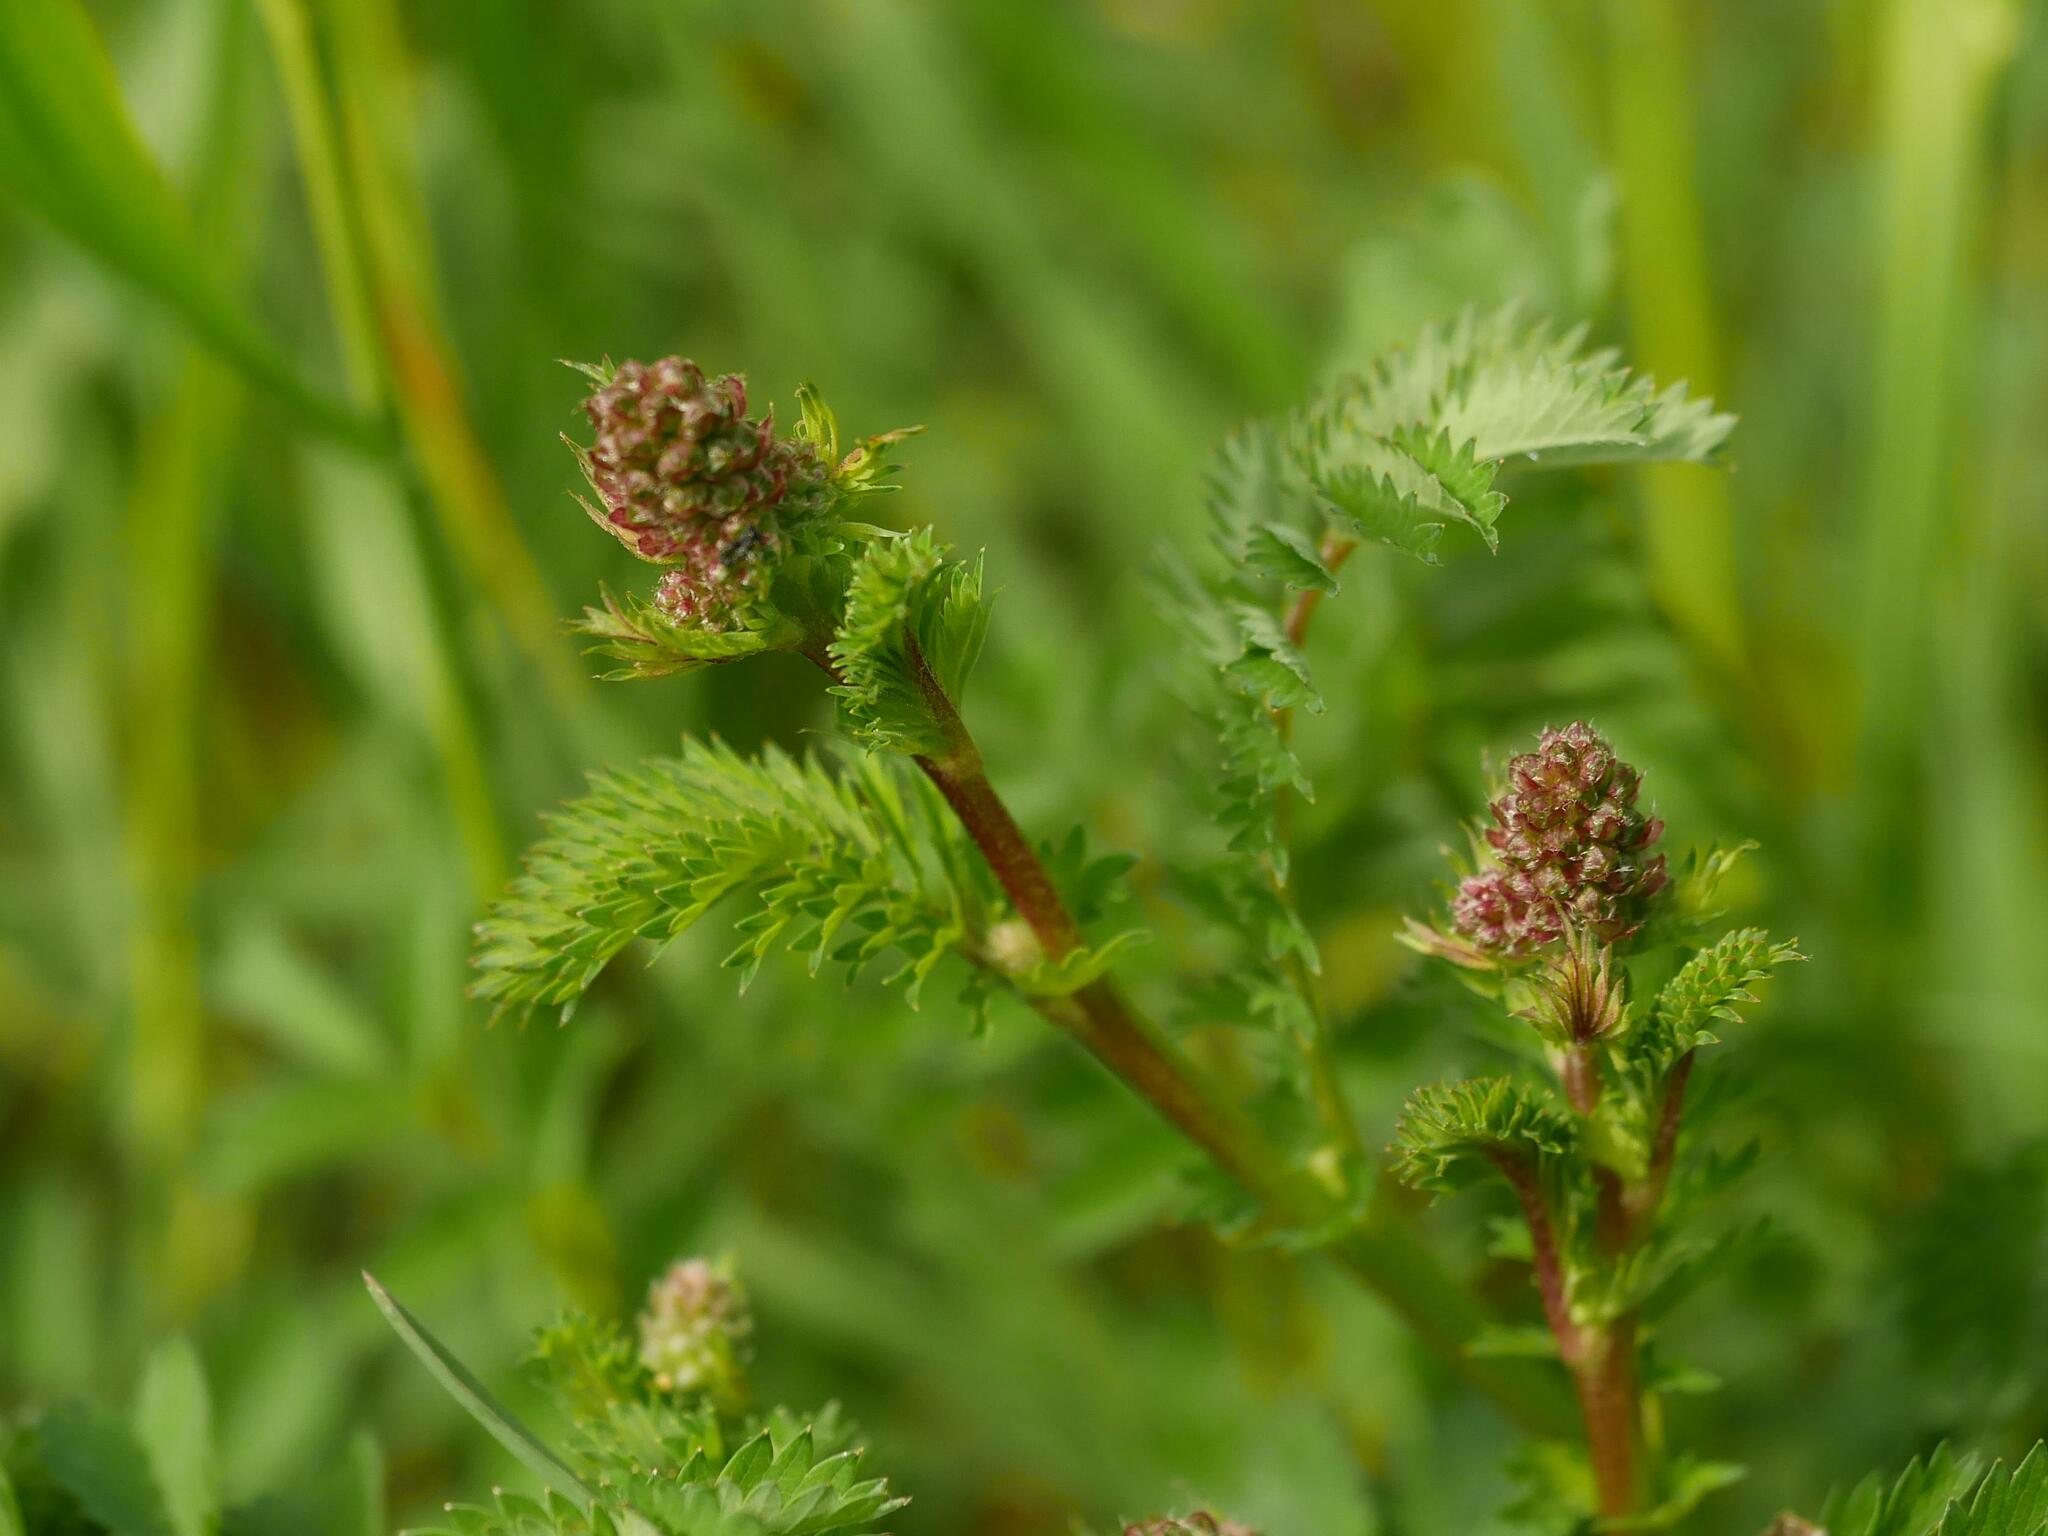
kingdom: Plantae
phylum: Tracheophyta
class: Magnoliopsida
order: Rosales
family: Rosaceae
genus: Poterium
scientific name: Poterium sanguisorba
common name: Salad burnet
